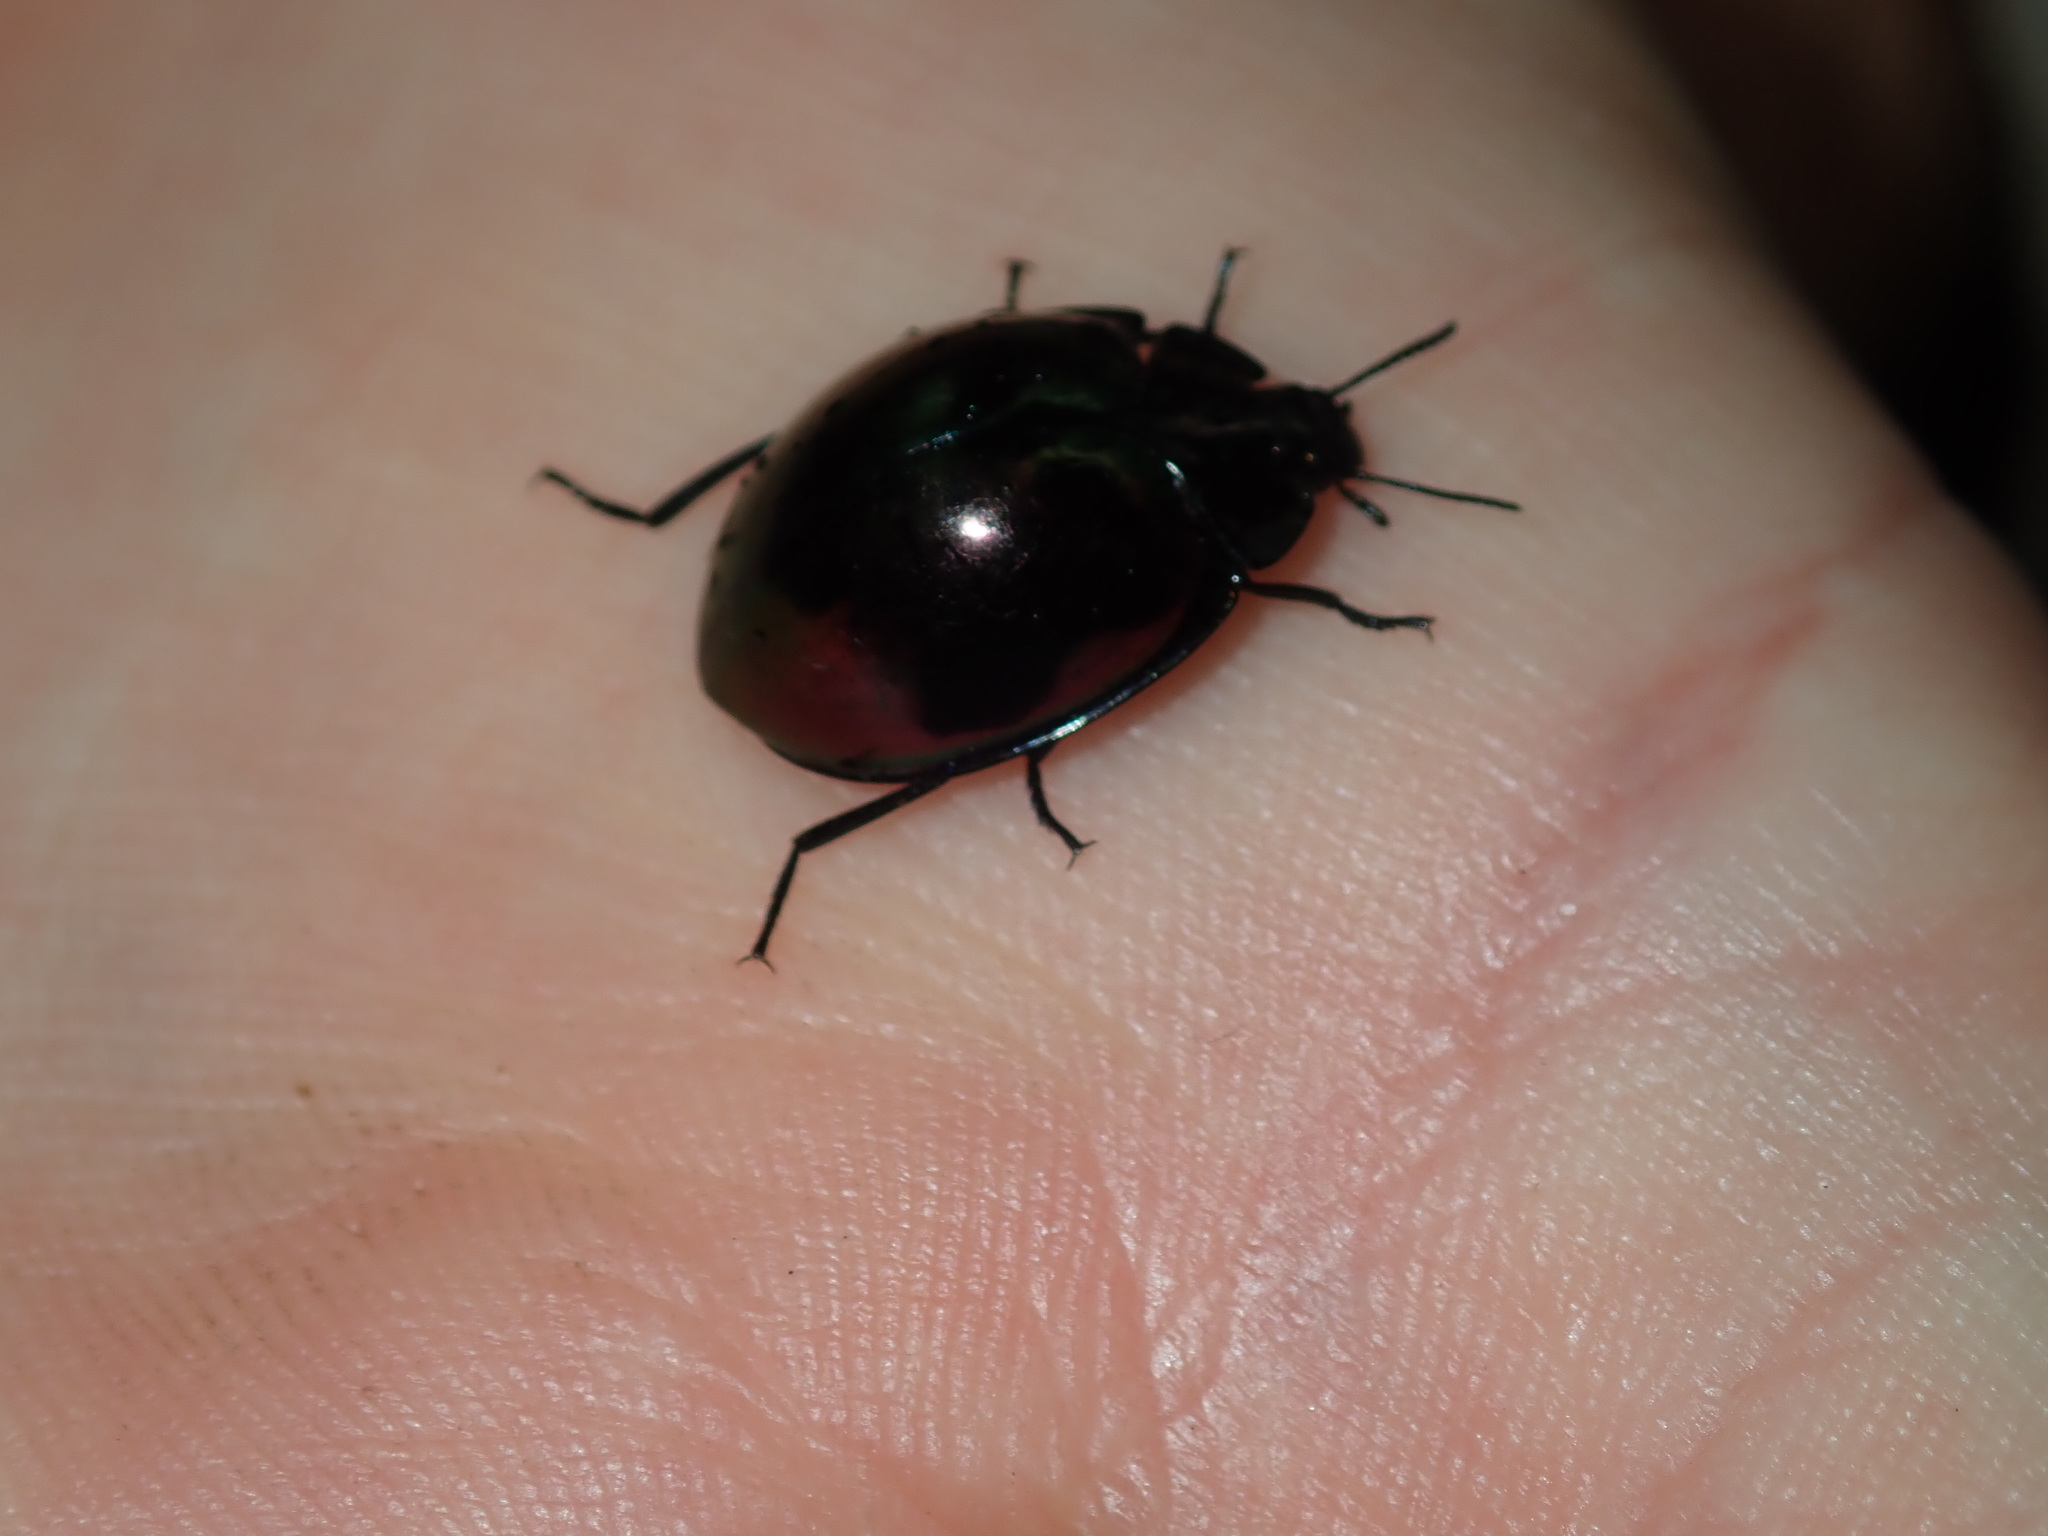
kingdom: Animalia
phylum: Arthropoda
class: Insecta
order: Coleoptera
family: Tenebrionidae
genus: Hemicyclus
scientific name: Hemicyclus
